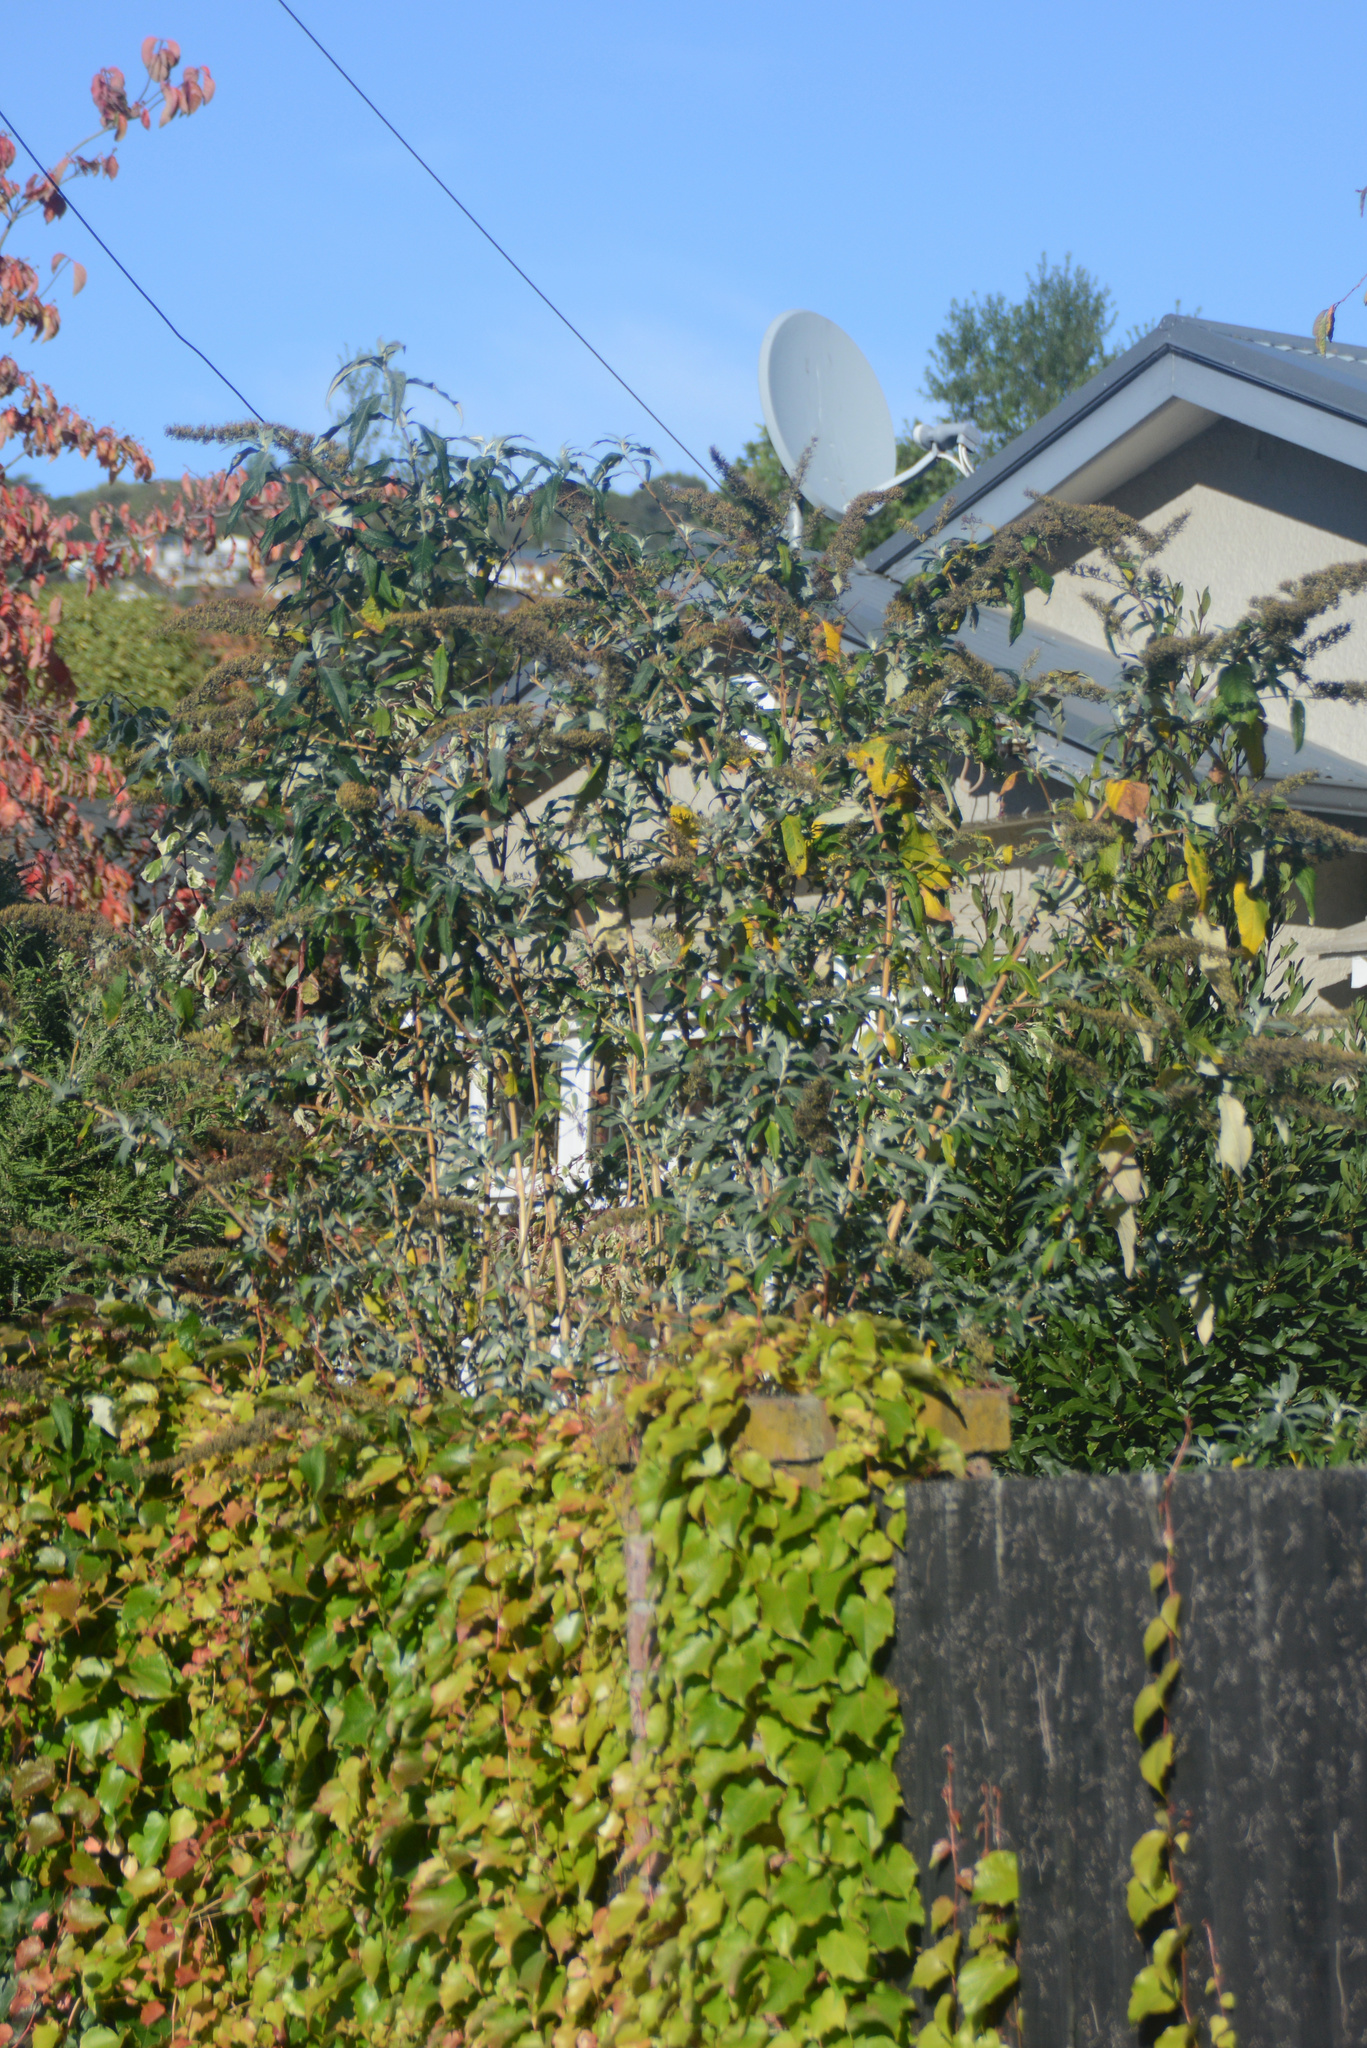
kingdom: Plantae
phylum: Tracheophyta
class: Magnoliopsida
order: Lamiales
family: Scrophulariaceae
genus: Buddleja
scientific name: Buddleja davidii
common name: Butterfly-bush
